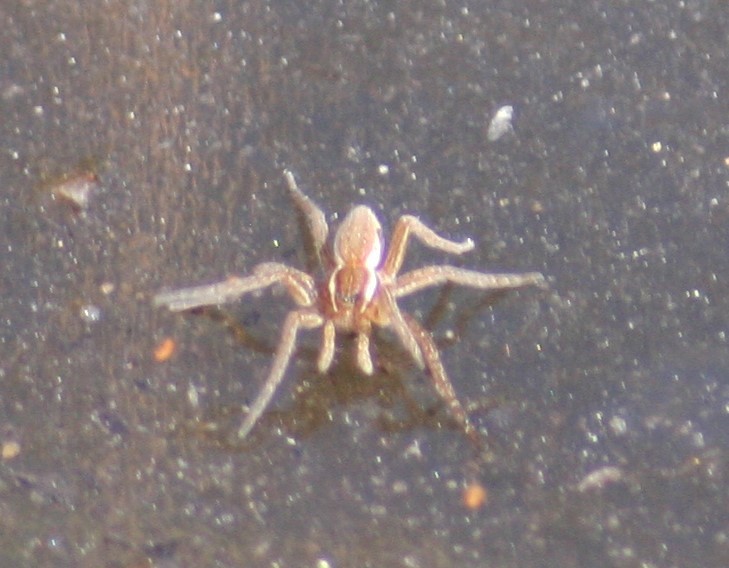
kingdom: Animalia
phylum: Arthropoda
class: Arachnida
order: Araneae
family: Pisauridae
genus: Dolomedes
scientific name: Dolomedes triton
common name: Six-spotted fishing spider
